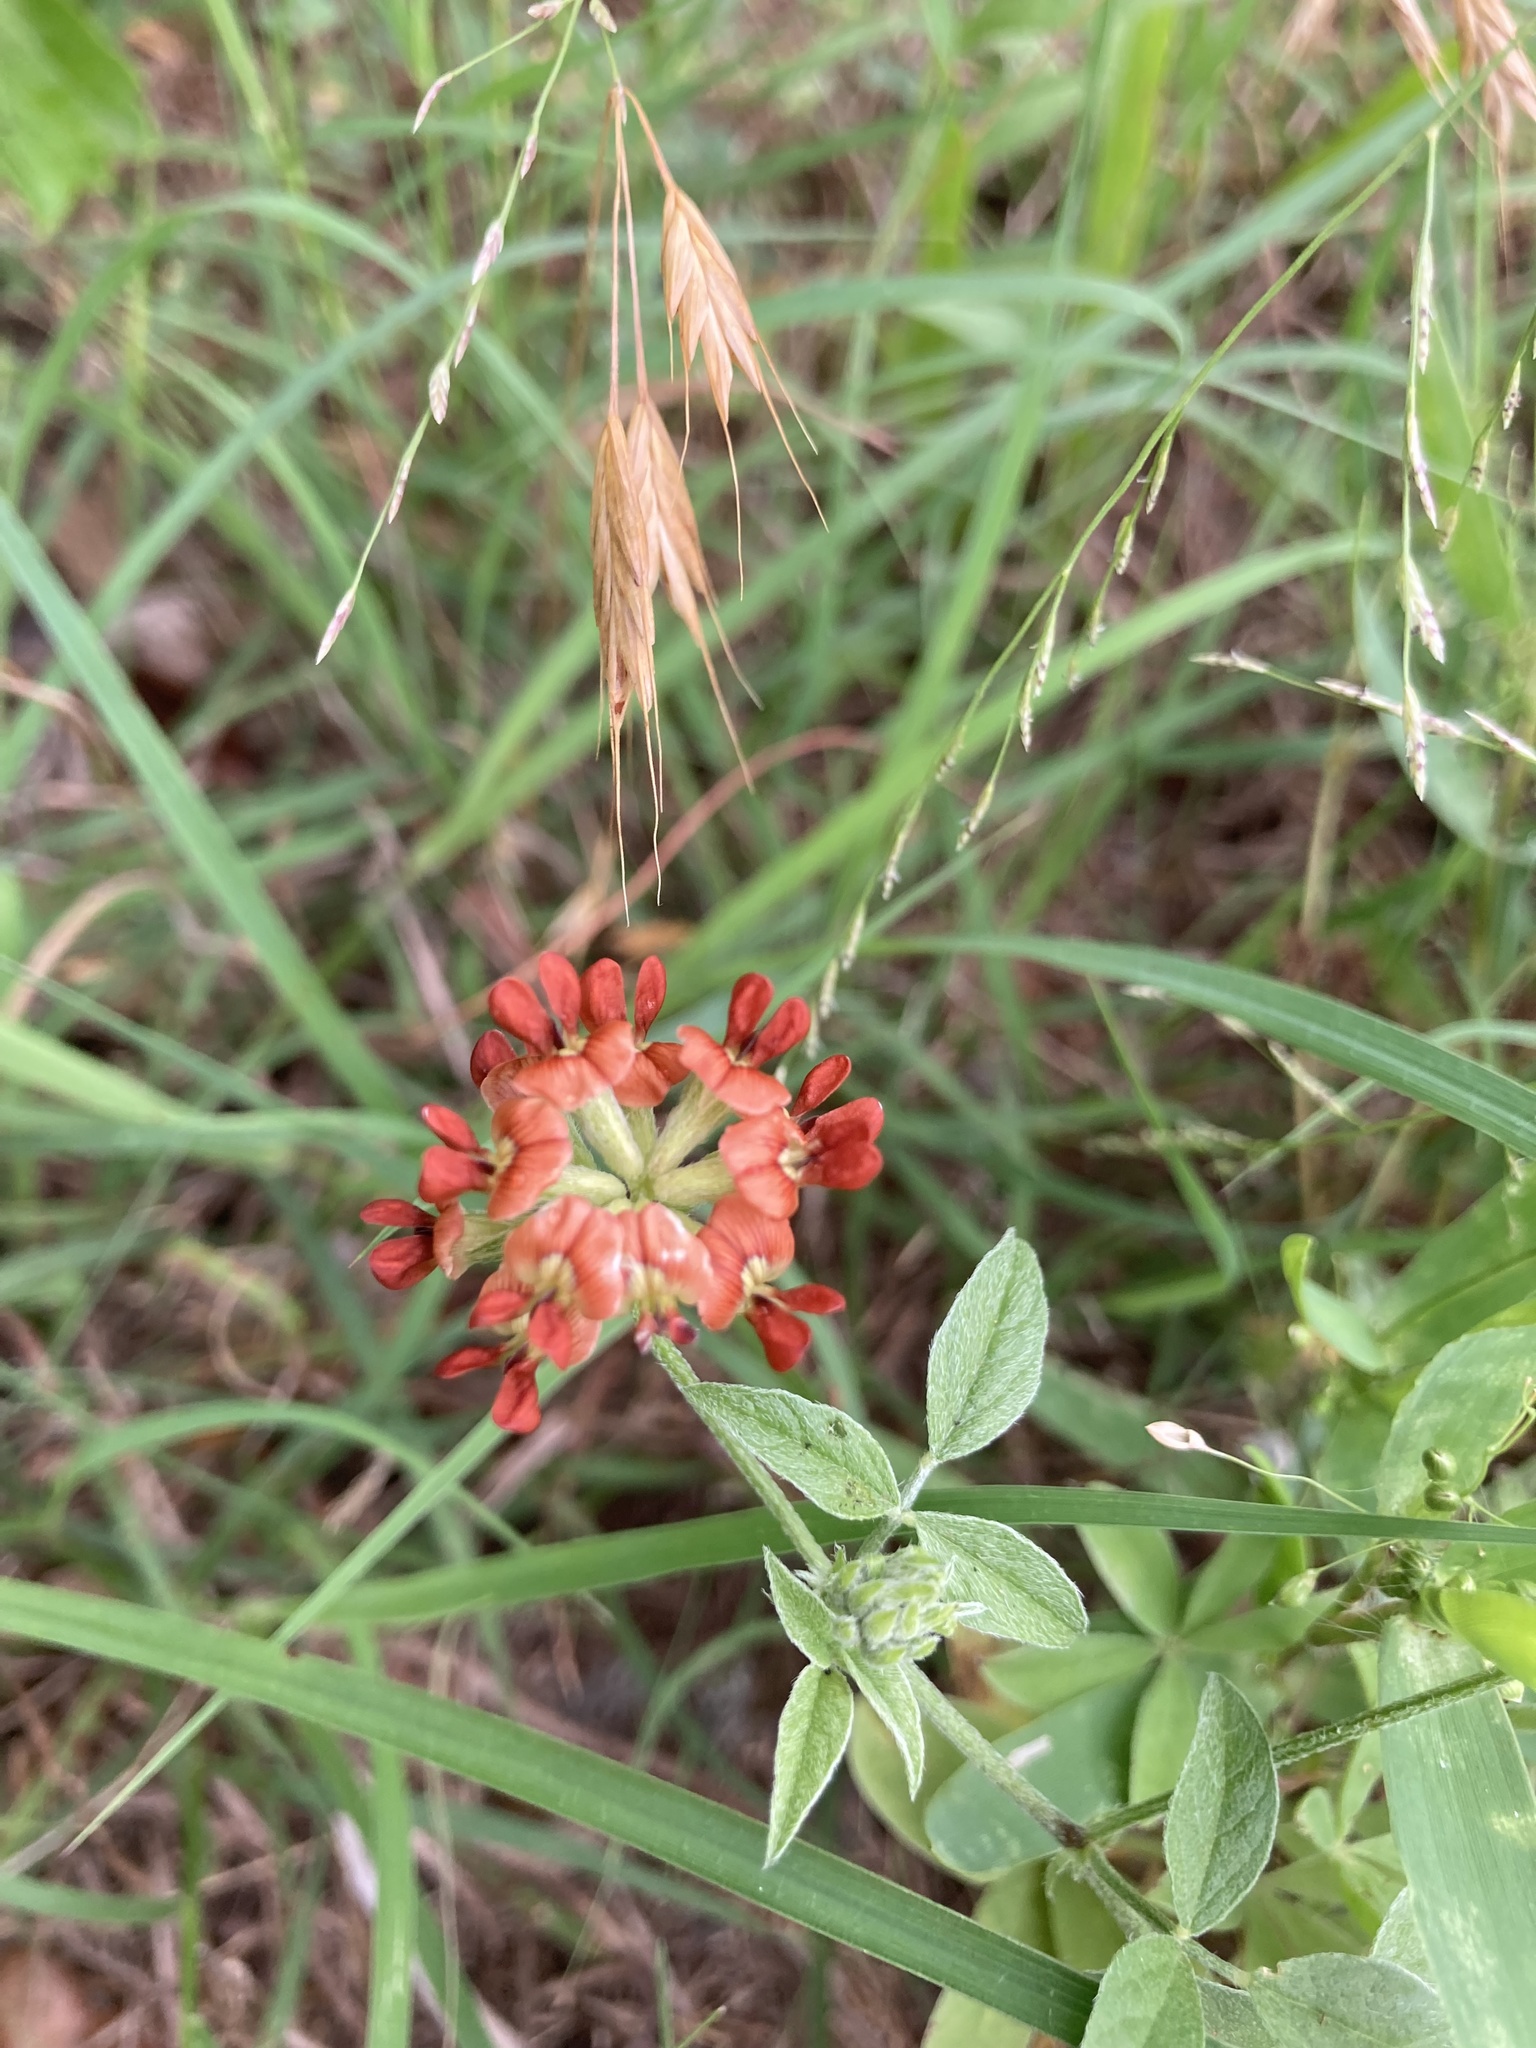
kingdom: Plantae
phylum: Tracheophyta
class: Magnoliopsida
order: Fabales
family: Fabaceae
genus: Pediomelum
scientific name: Pediomelum rhombifolium
